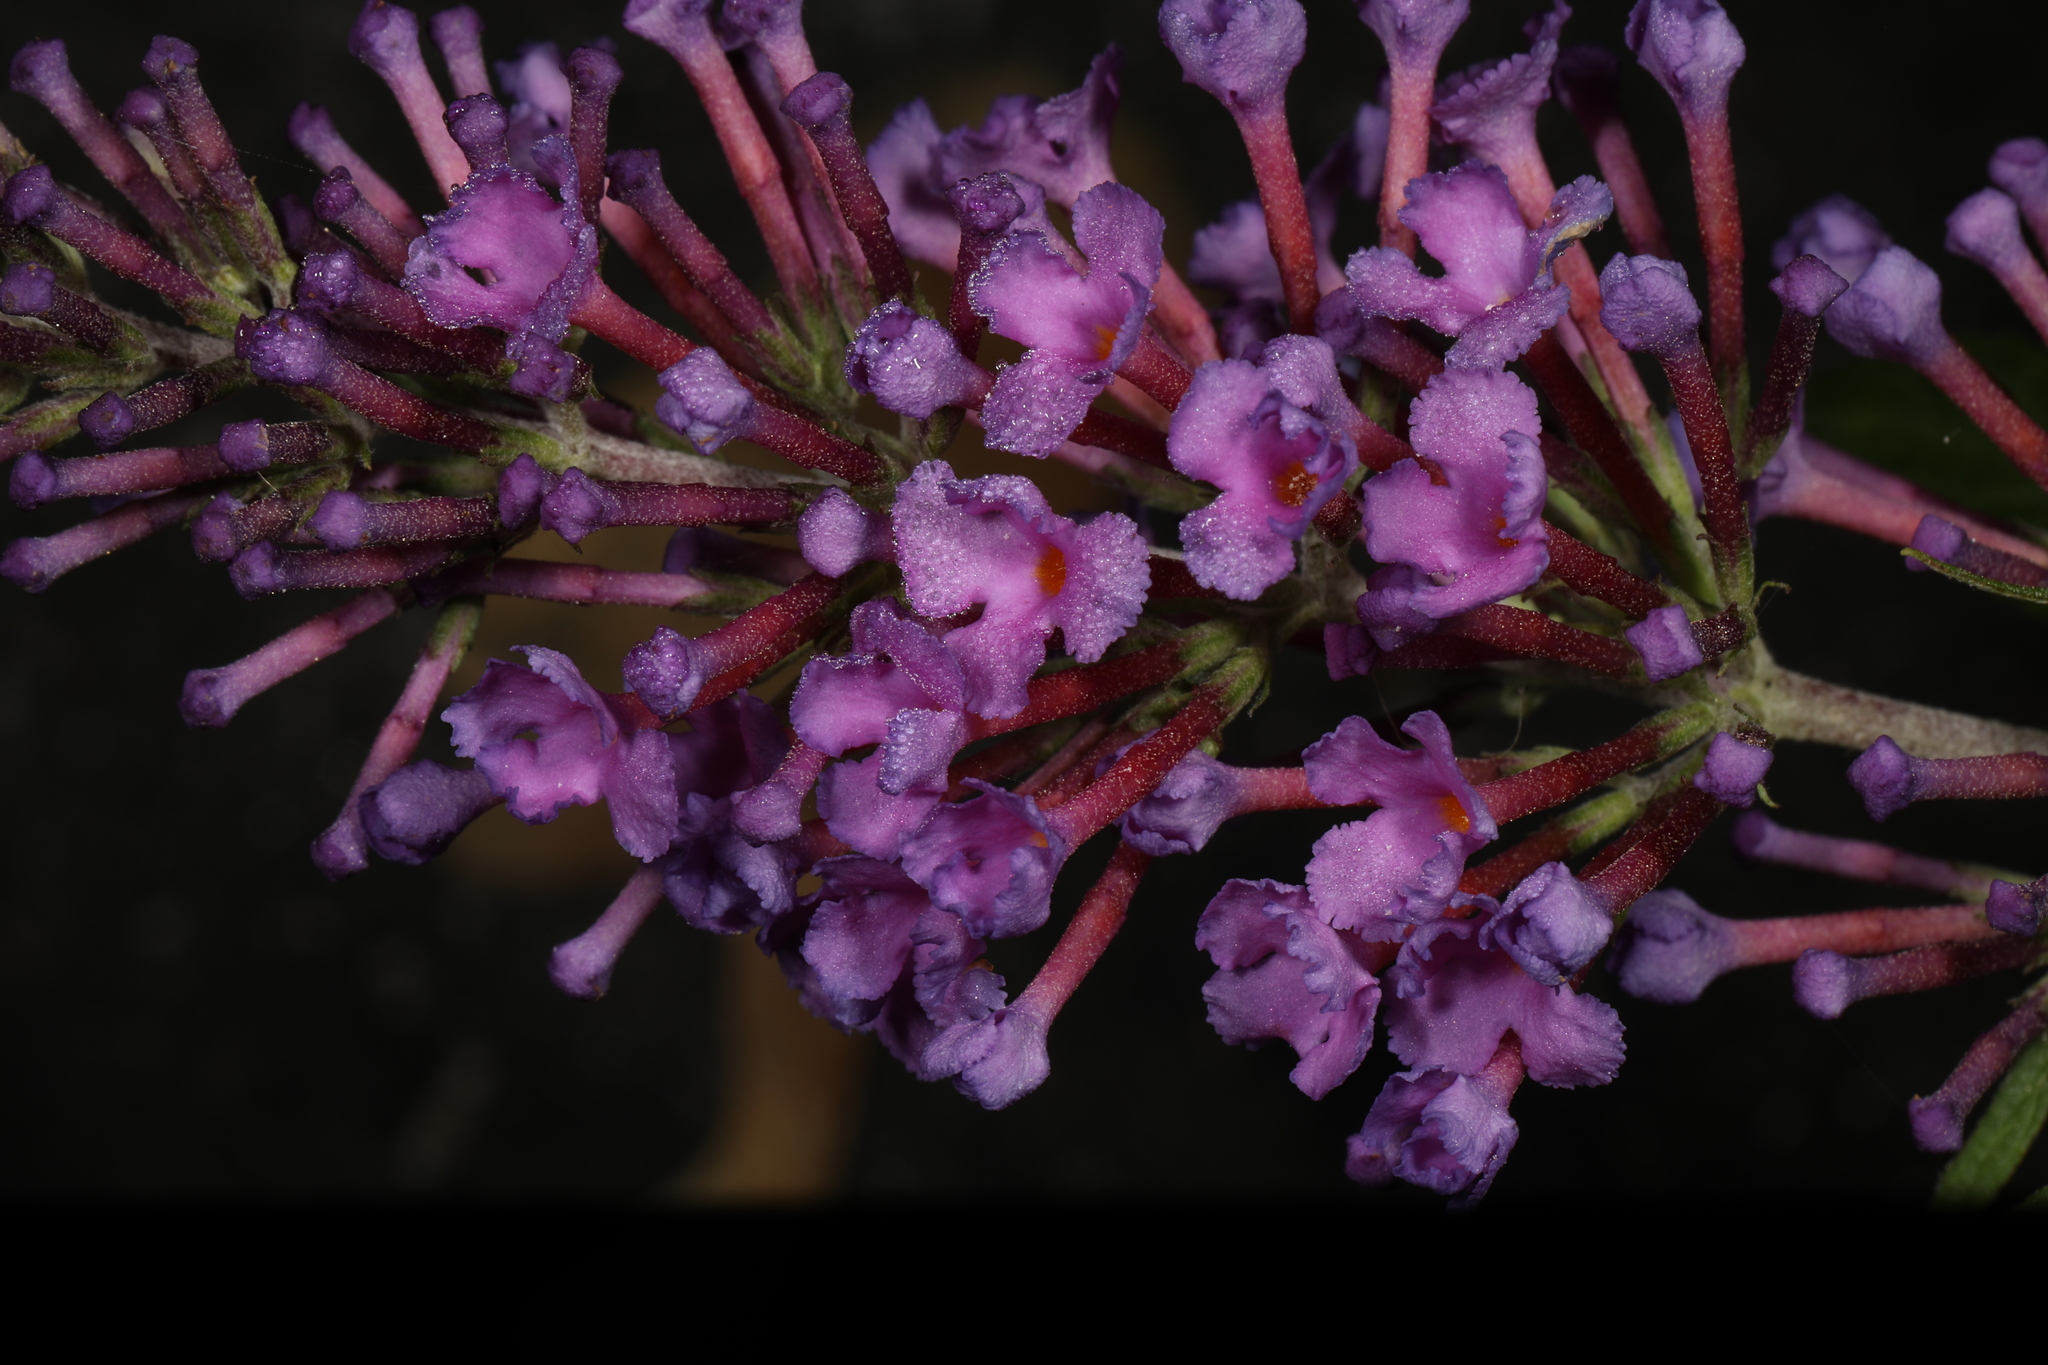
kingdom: Plantae
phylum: Tracheophyta
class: Magnoliopsida
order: Lamiales
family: Scrophulariaceae
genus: Buddleja
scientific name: Buddleja davidii
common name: Butterfly-bush
